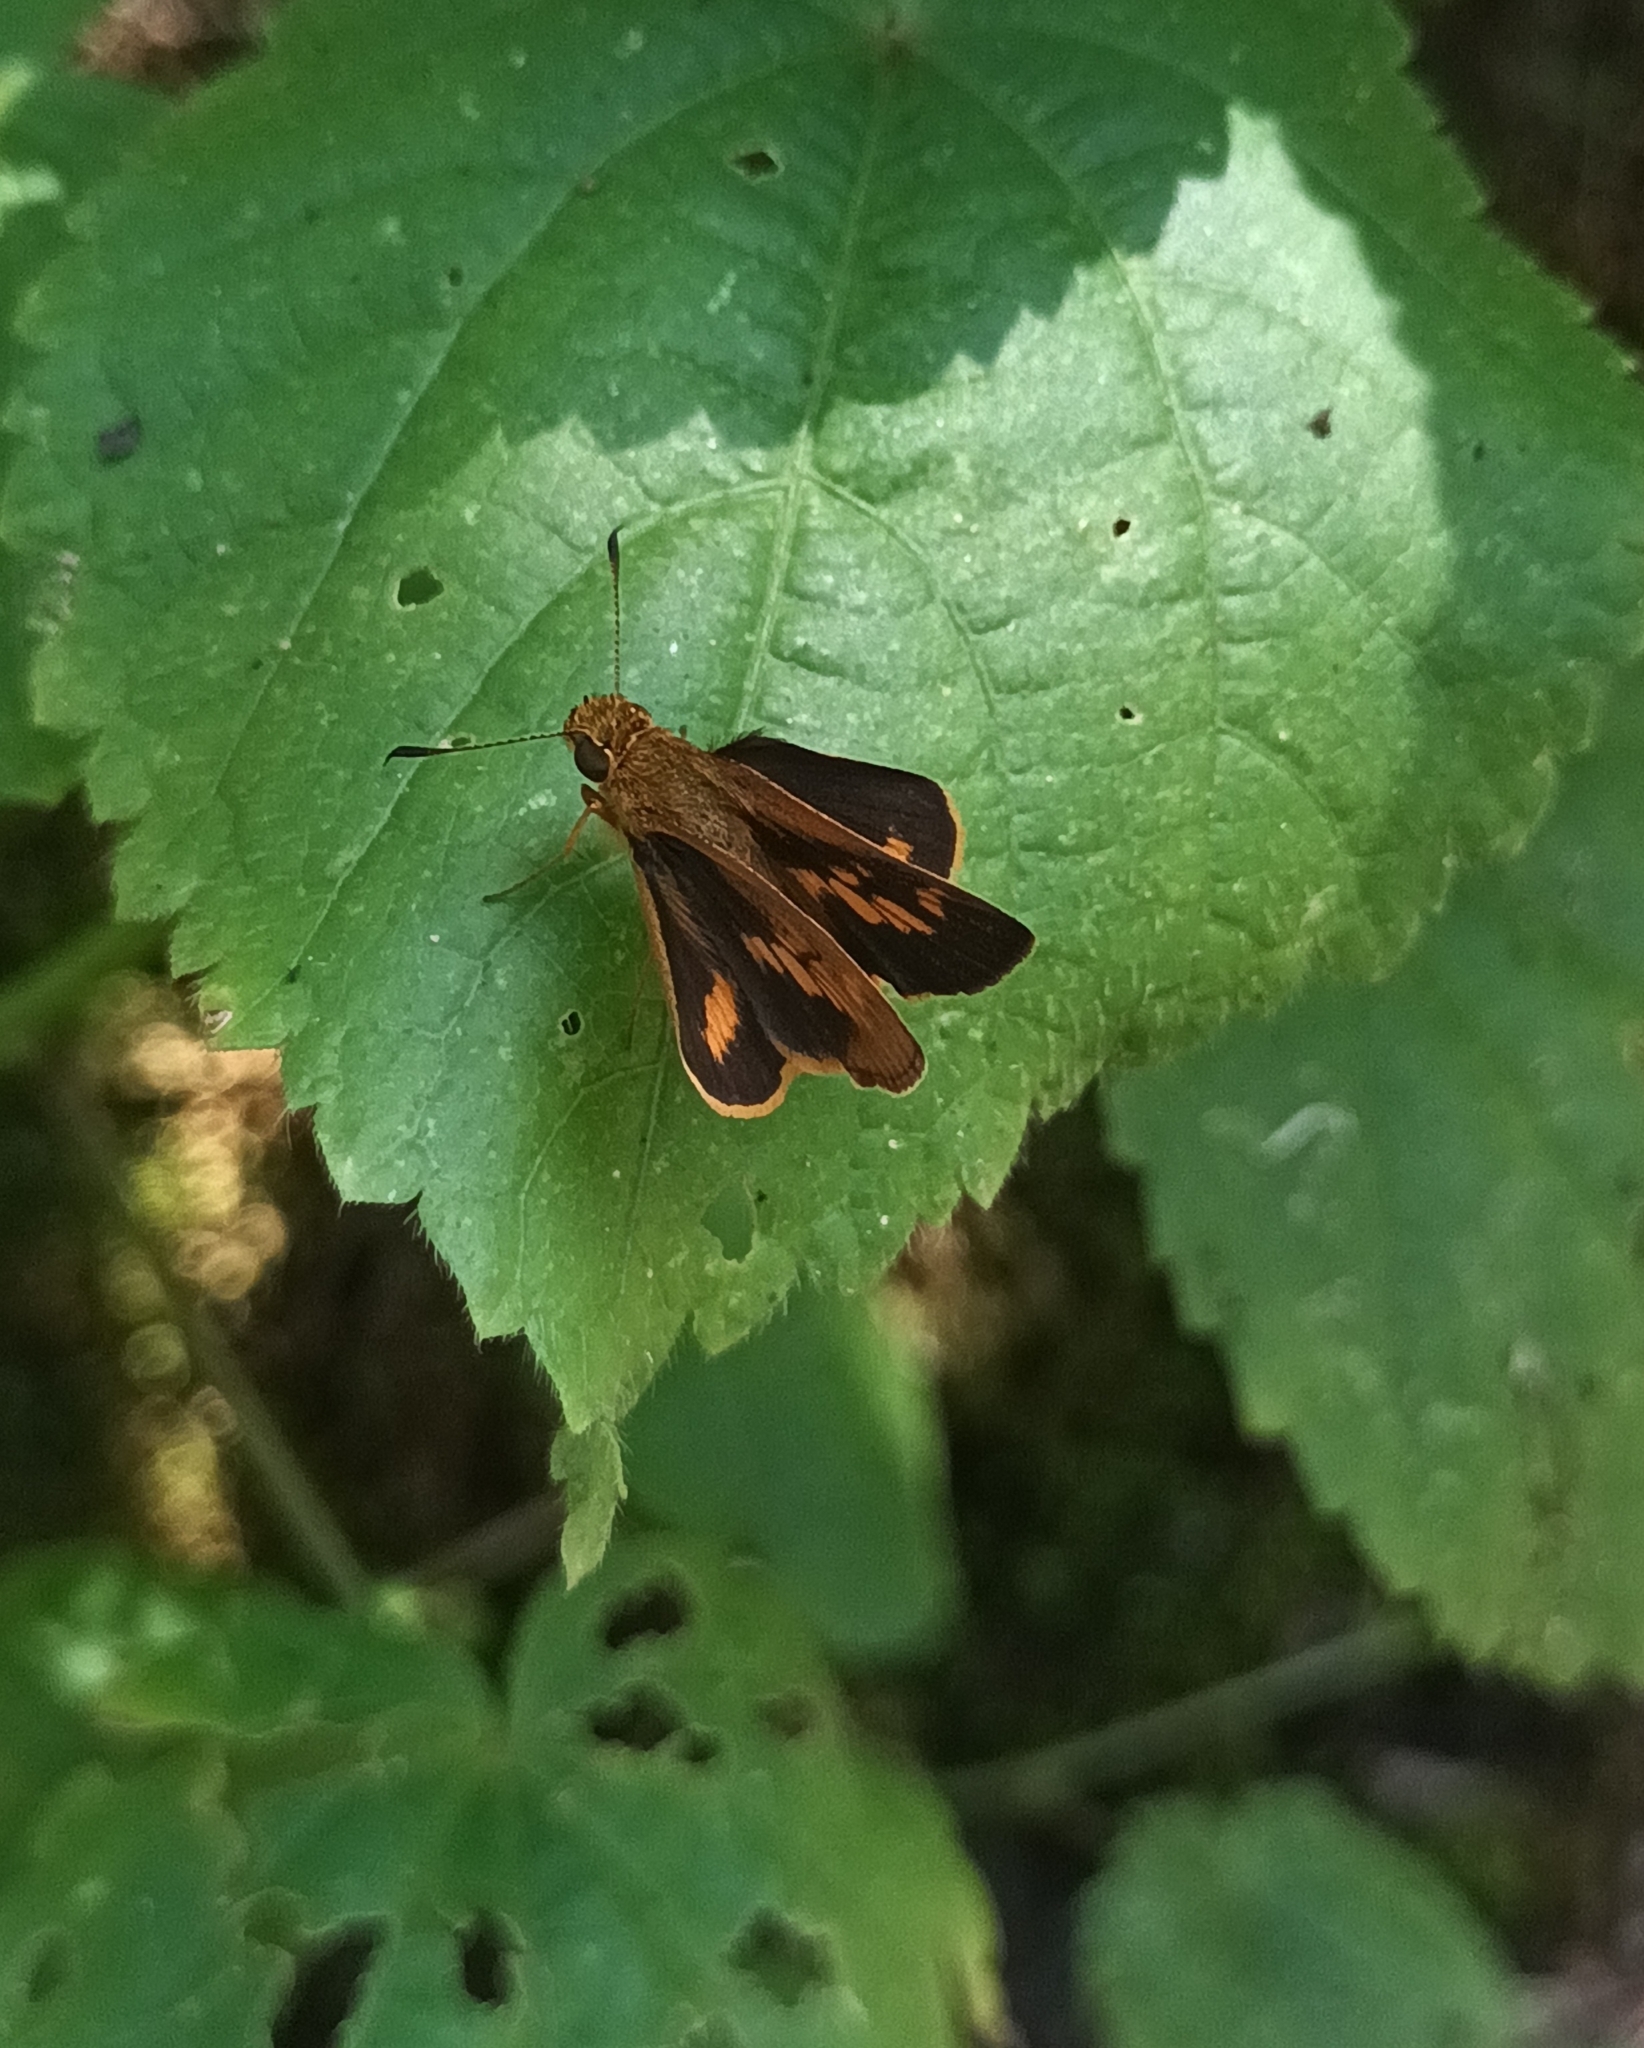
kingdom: Animalia
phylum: Arthropoda
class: Insecta
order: Lepidoptera
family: Hesperiidae
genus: Oriens
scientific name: Oriens goloides
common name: Smaller dartlet
